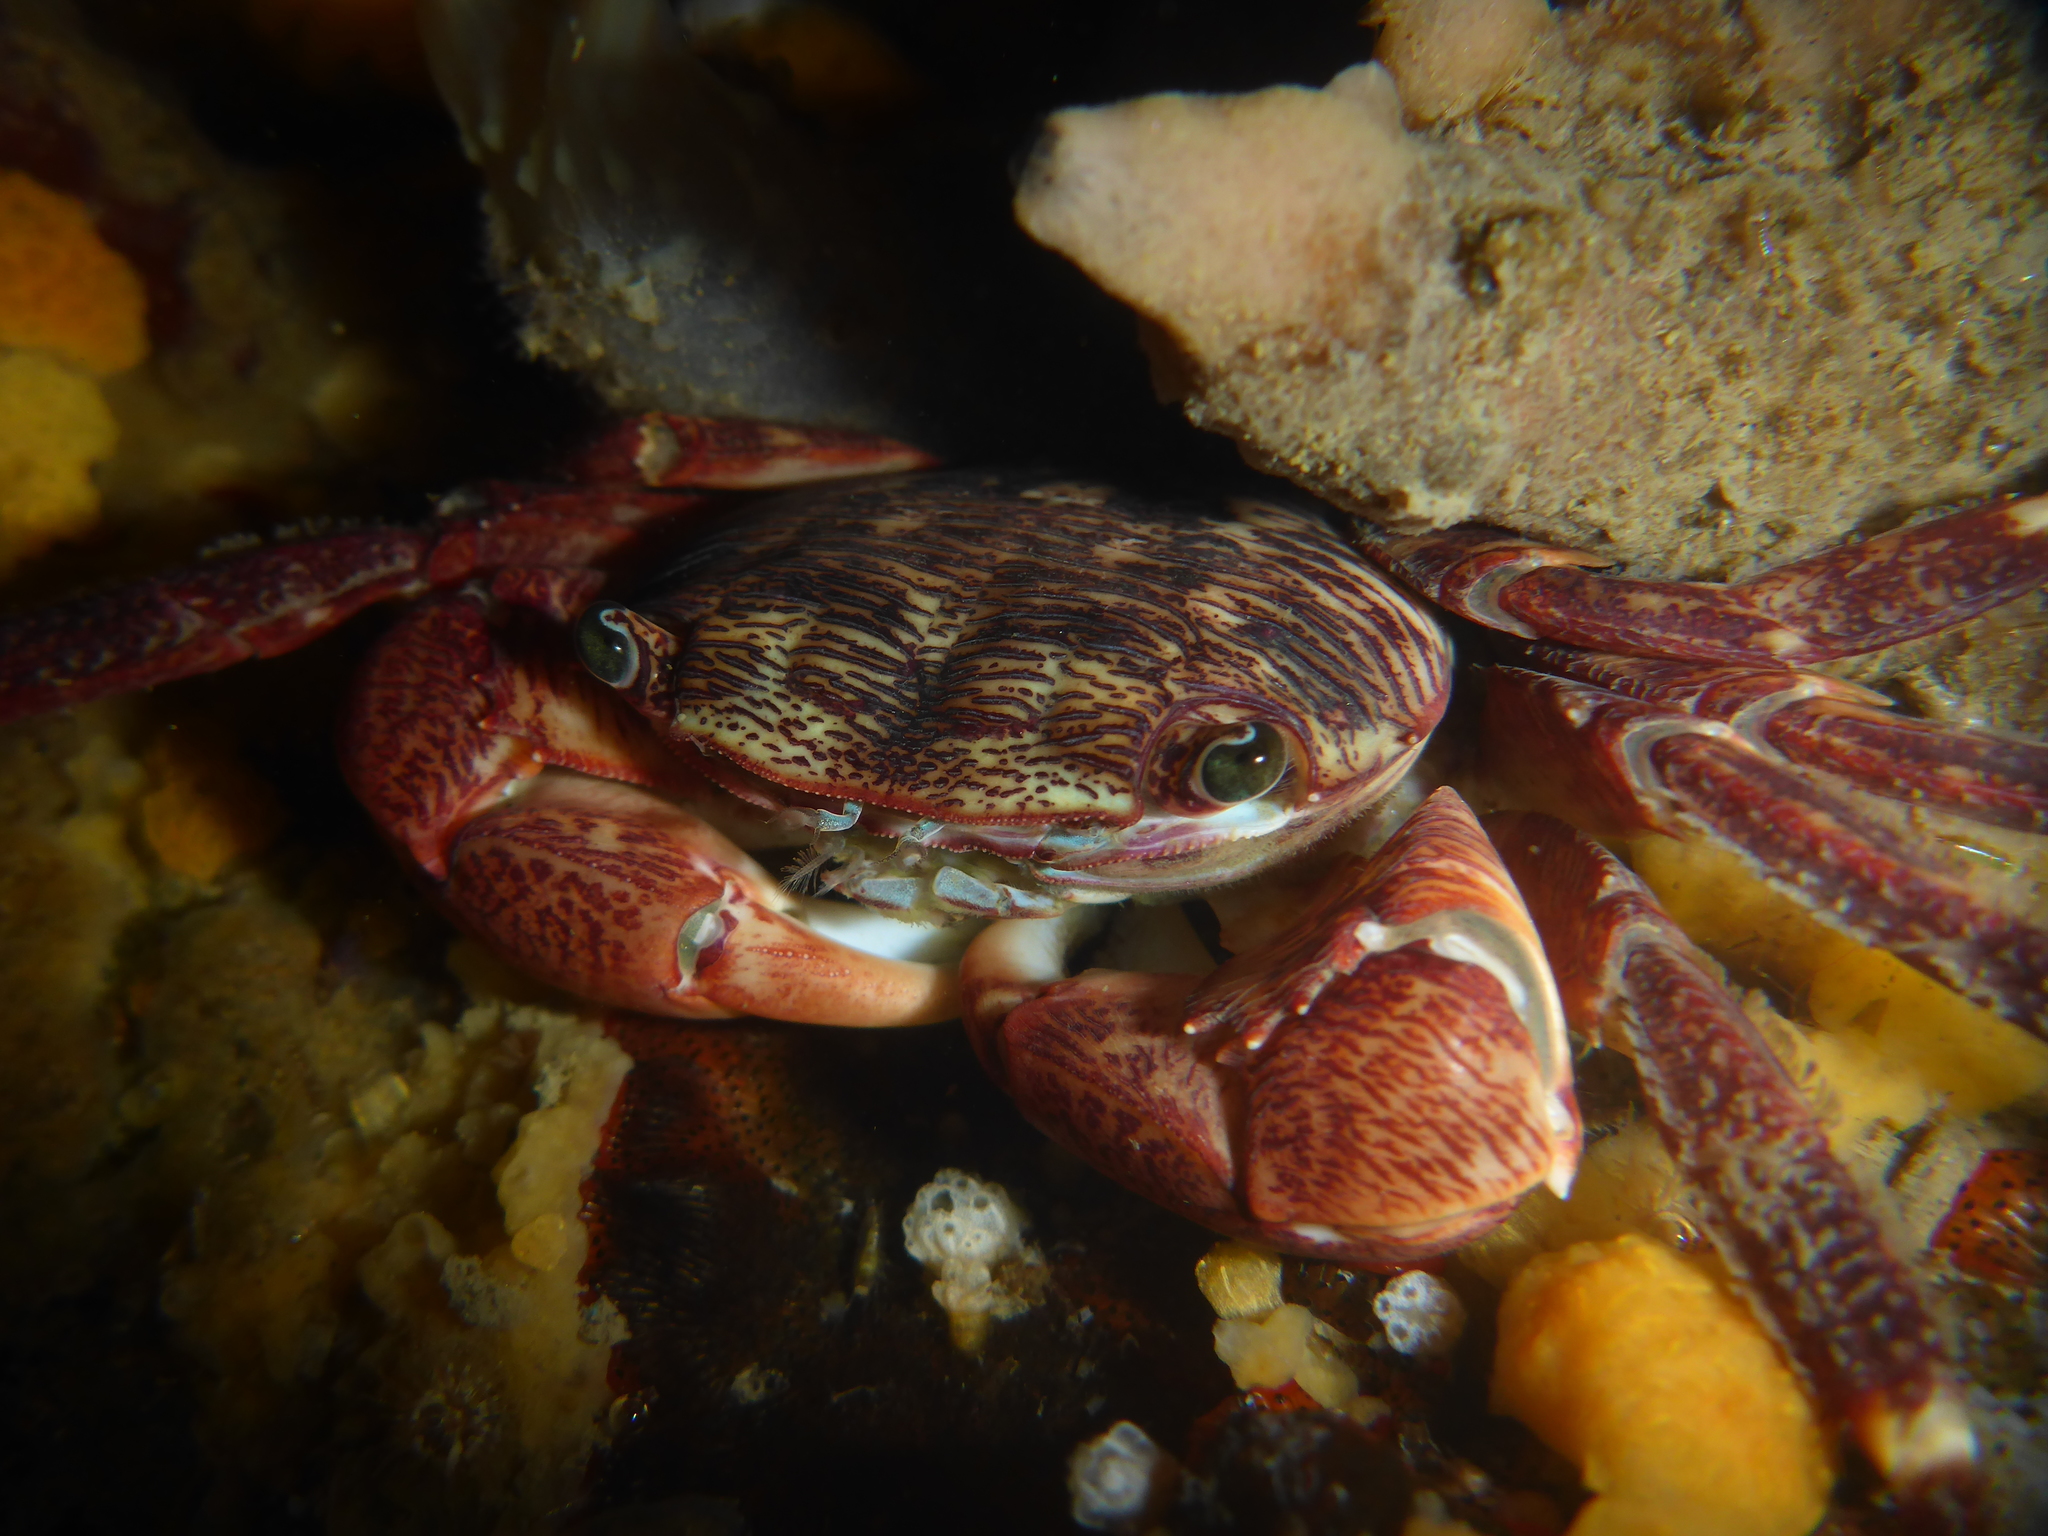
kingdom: Animalia
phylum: Arthropoda
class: Malacostraca
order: Decapoda
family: Grapsidae
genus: Pachygrapsus
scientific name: Pachygrapsus crassipes
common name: Striped shore crab
